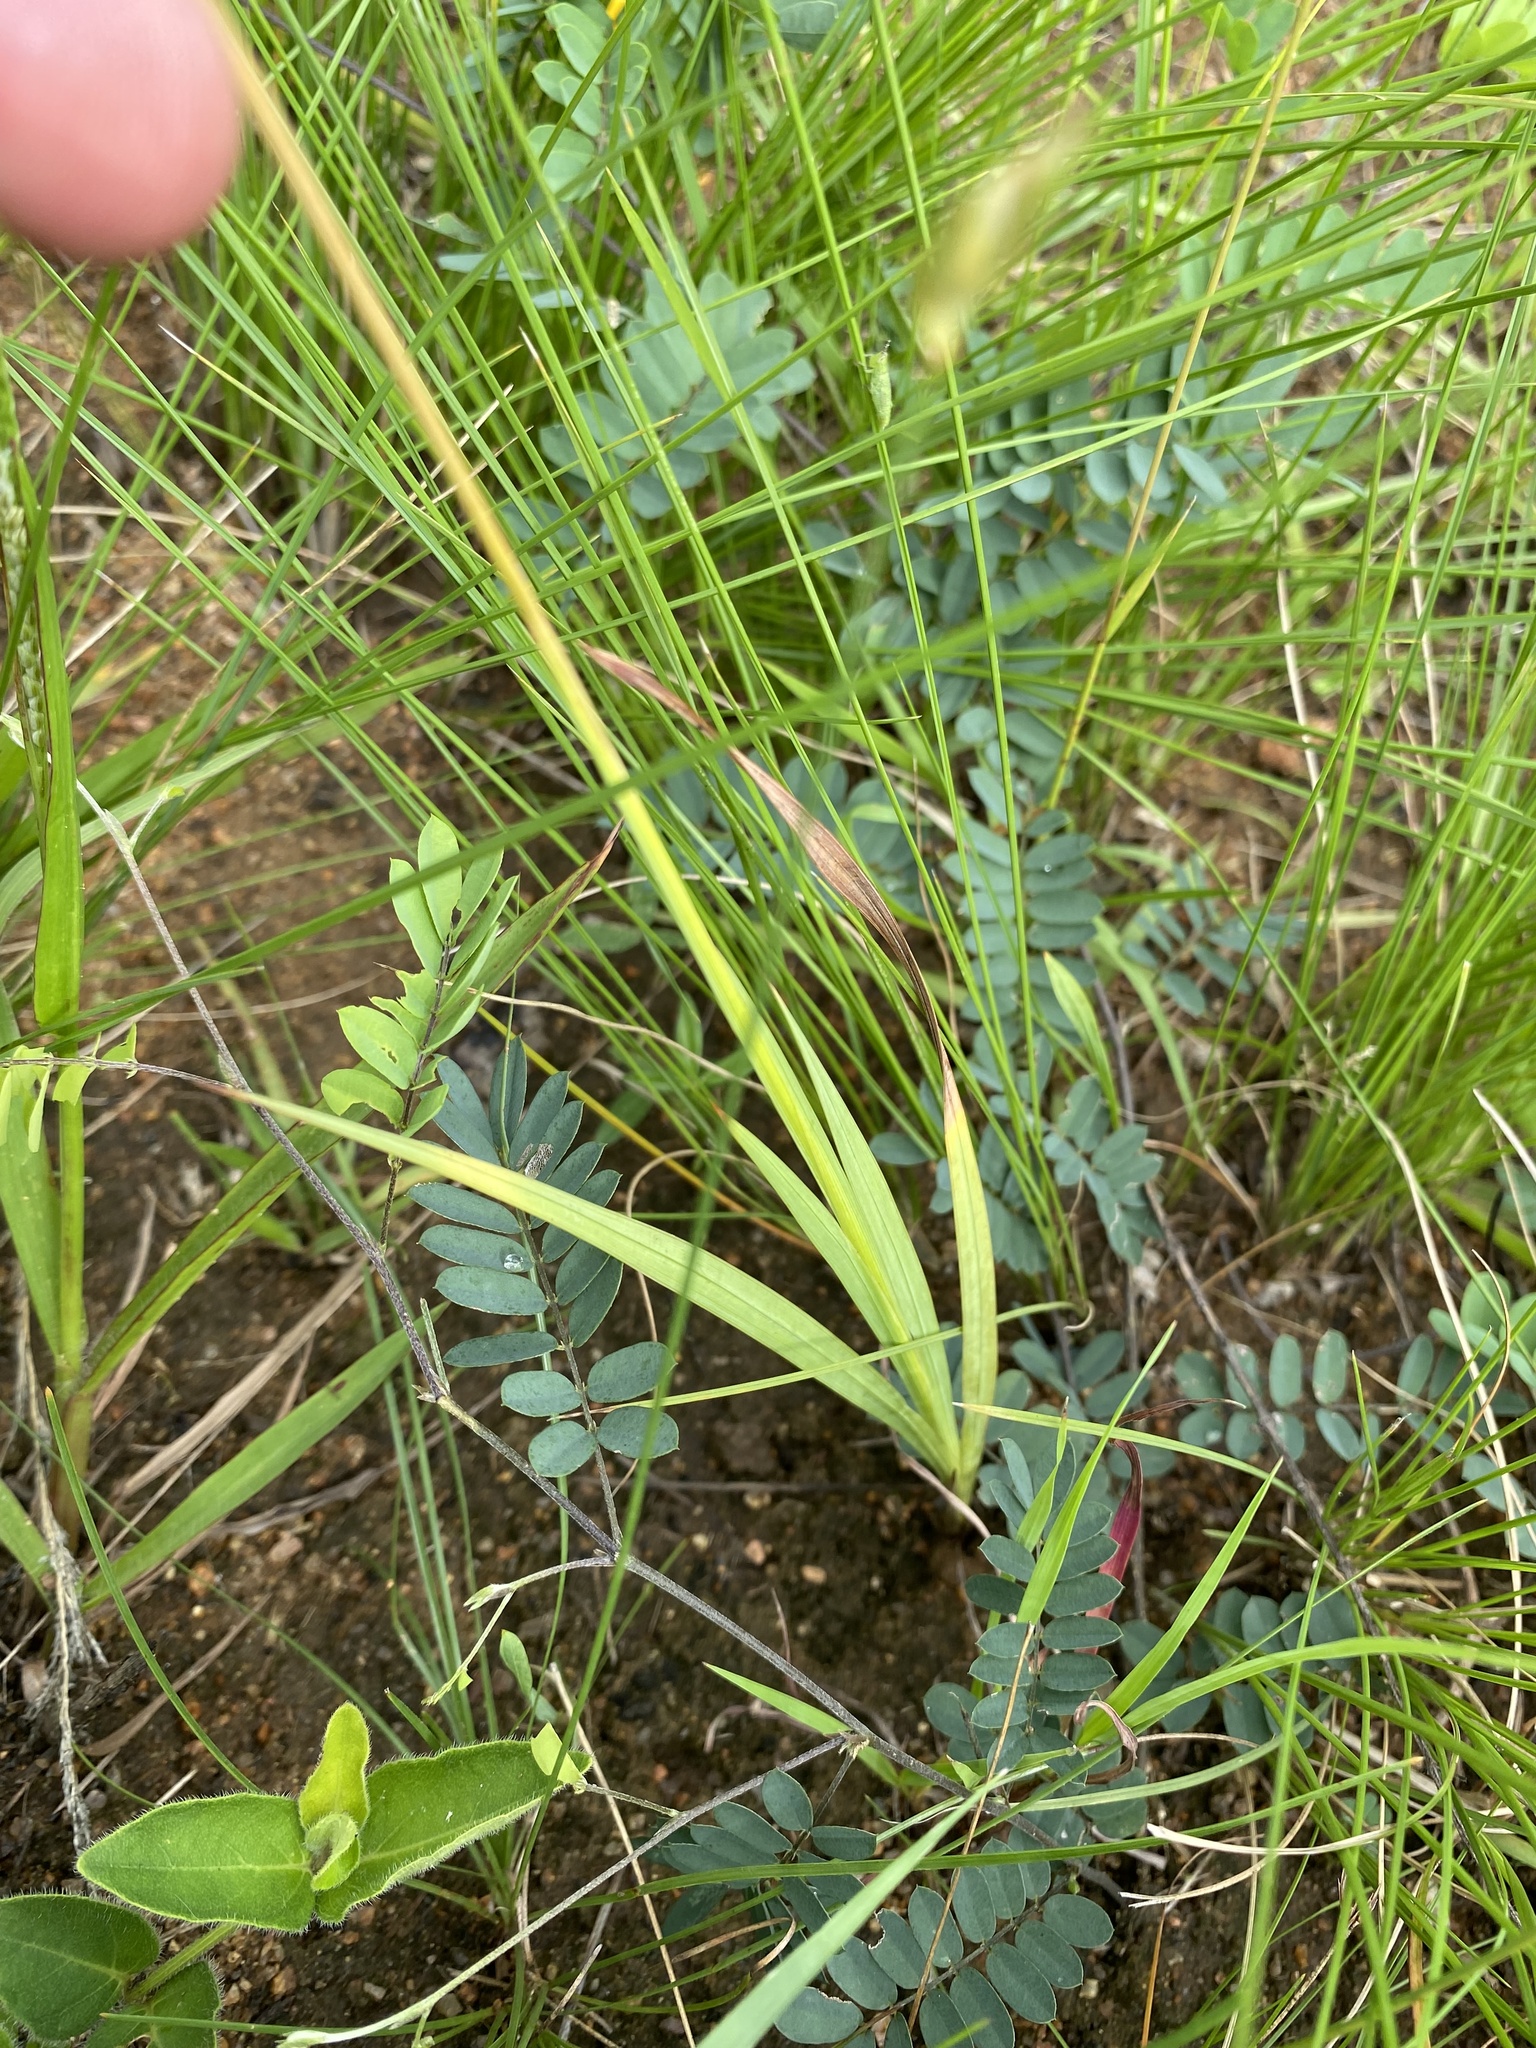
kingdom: Plantae
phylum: Tracheophyta
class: Liliopsida
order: Asparagales
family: Iridaceae
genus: Tritonia
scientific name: Tritonia disticha
